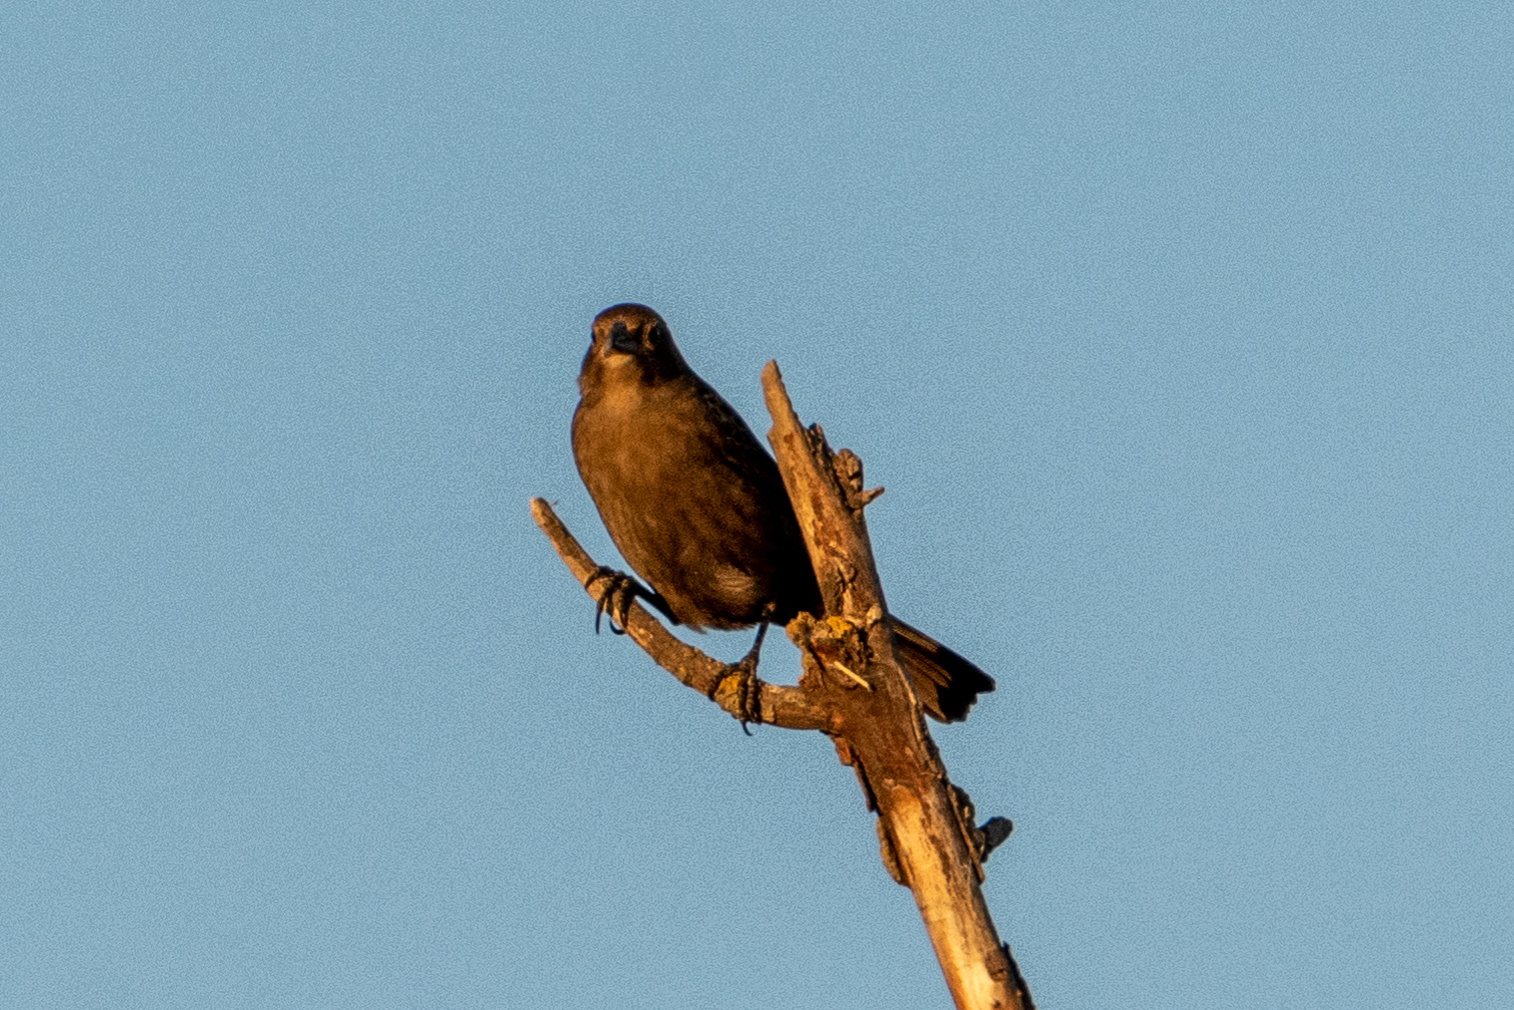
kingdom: Animalia
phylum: Chordata
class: Aves
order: Passeriformes
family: Icteridae
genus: Molothrus
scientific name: Molothrus ater
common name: Brown-headed cowbird
